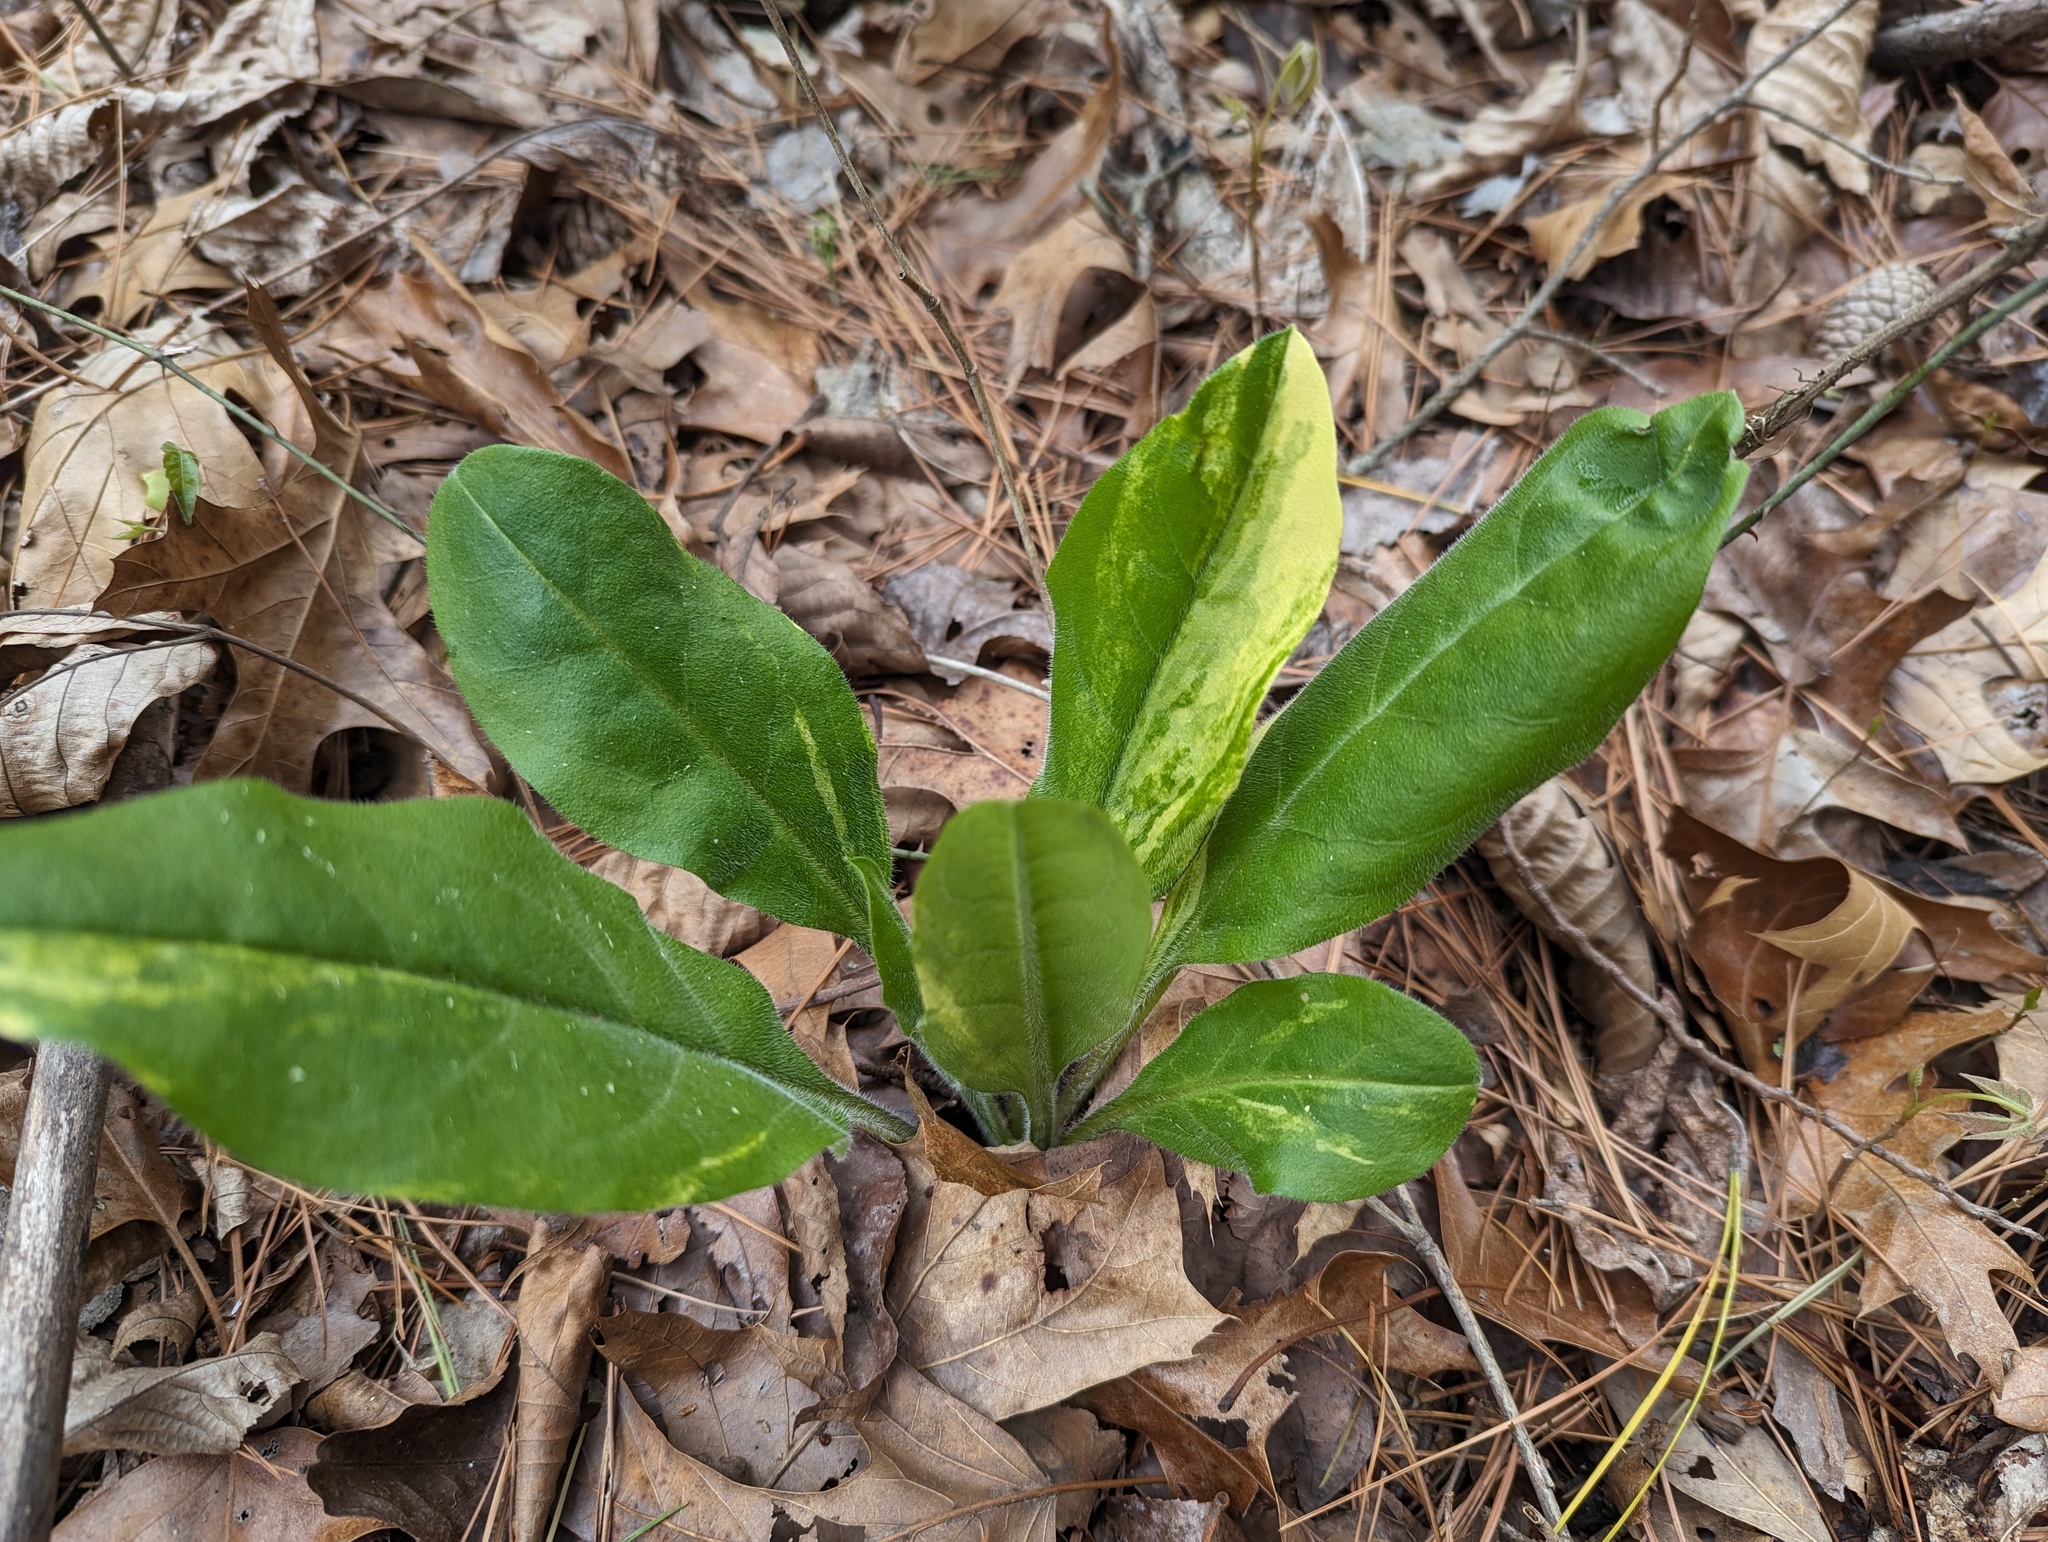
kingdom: Plantae
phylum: Tracheophyta
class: Magnoliopsida
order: Boraginales
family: Boraginaceae
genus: Andersonglossum
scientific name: Andersonglossum virginianum
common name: Wild comfrey
